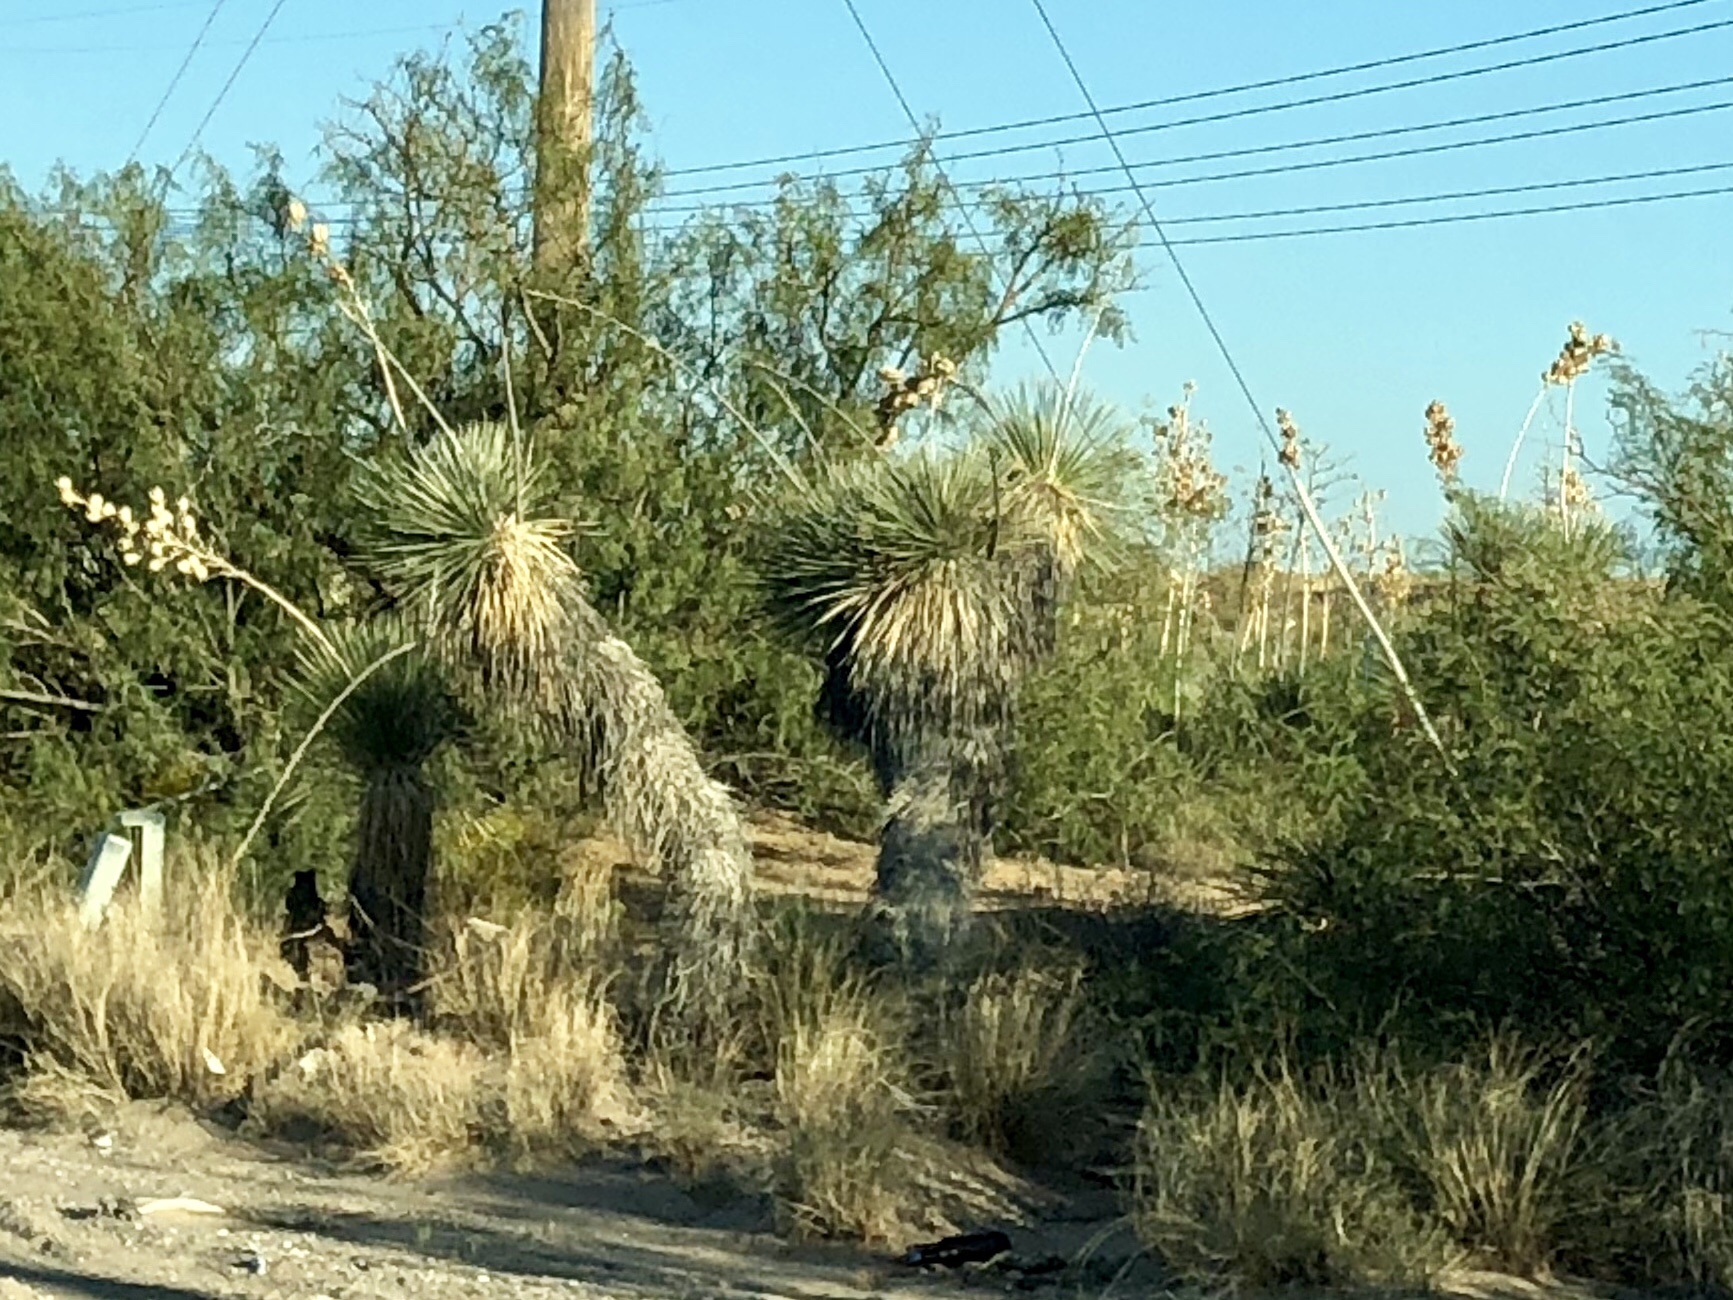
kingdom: Plantae
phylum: Tracheophyta
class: Liliopsida
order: Asparagales
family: Asparagaceae
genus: Yucca
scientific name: Yucca elata
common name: Palmella
